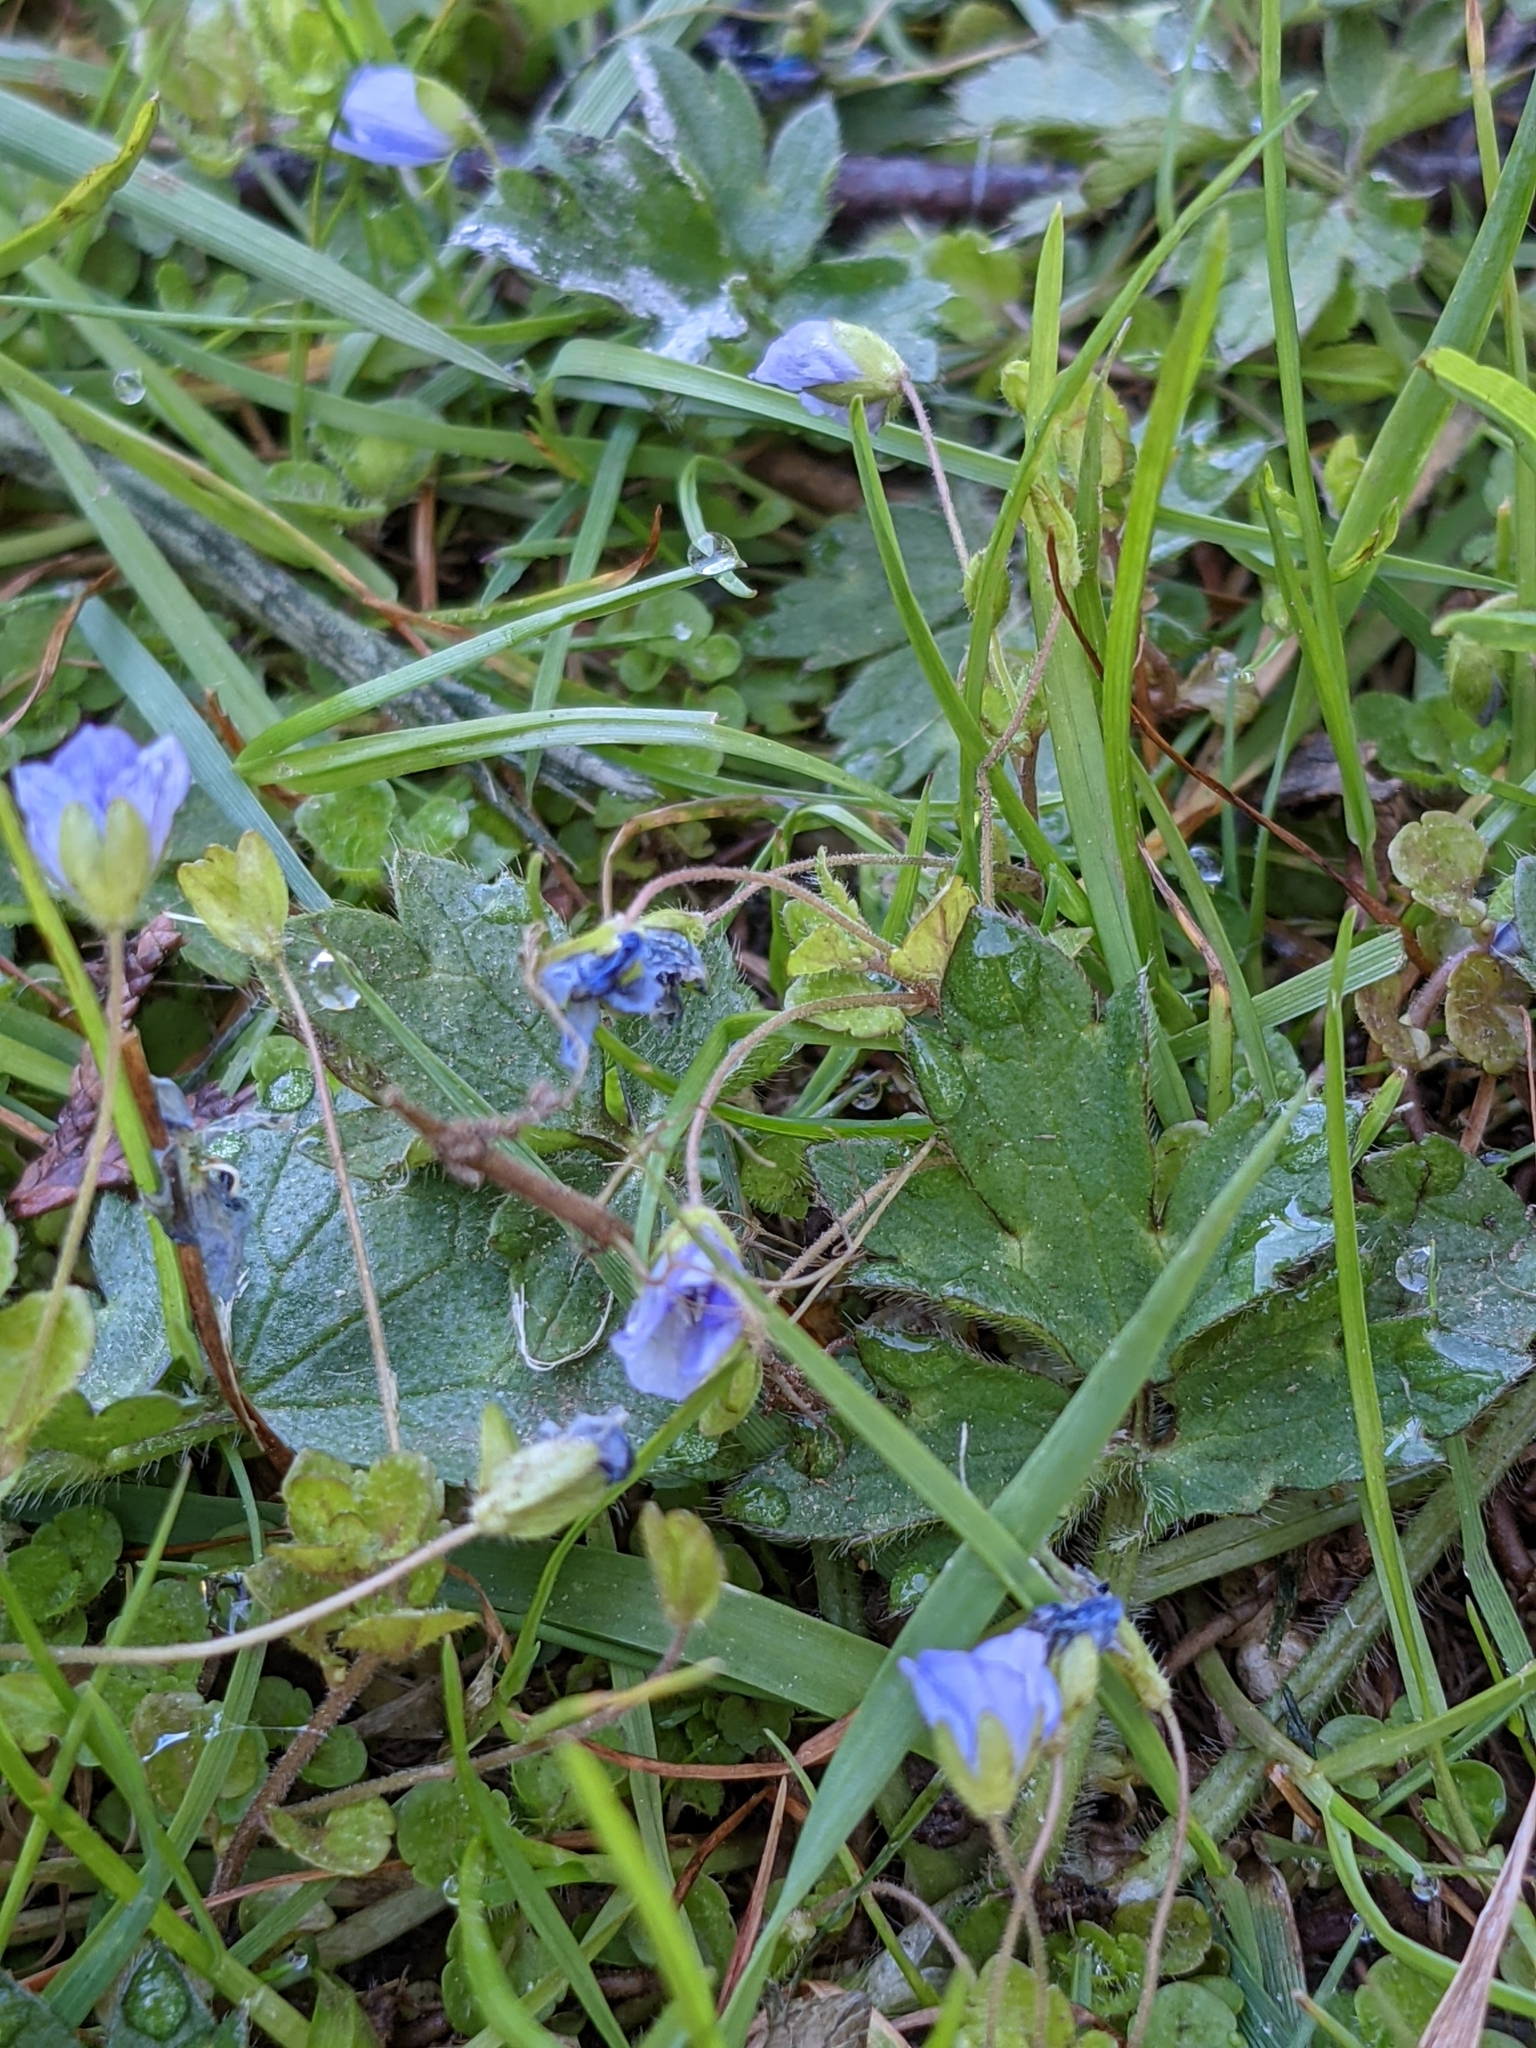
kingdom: Plantae
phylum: Tracheophyta
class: Magnoliopsida
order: Lamiales
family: Plantaginaceae
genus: Veronica
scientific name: Veronica filiformis
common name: Slender speedwell
